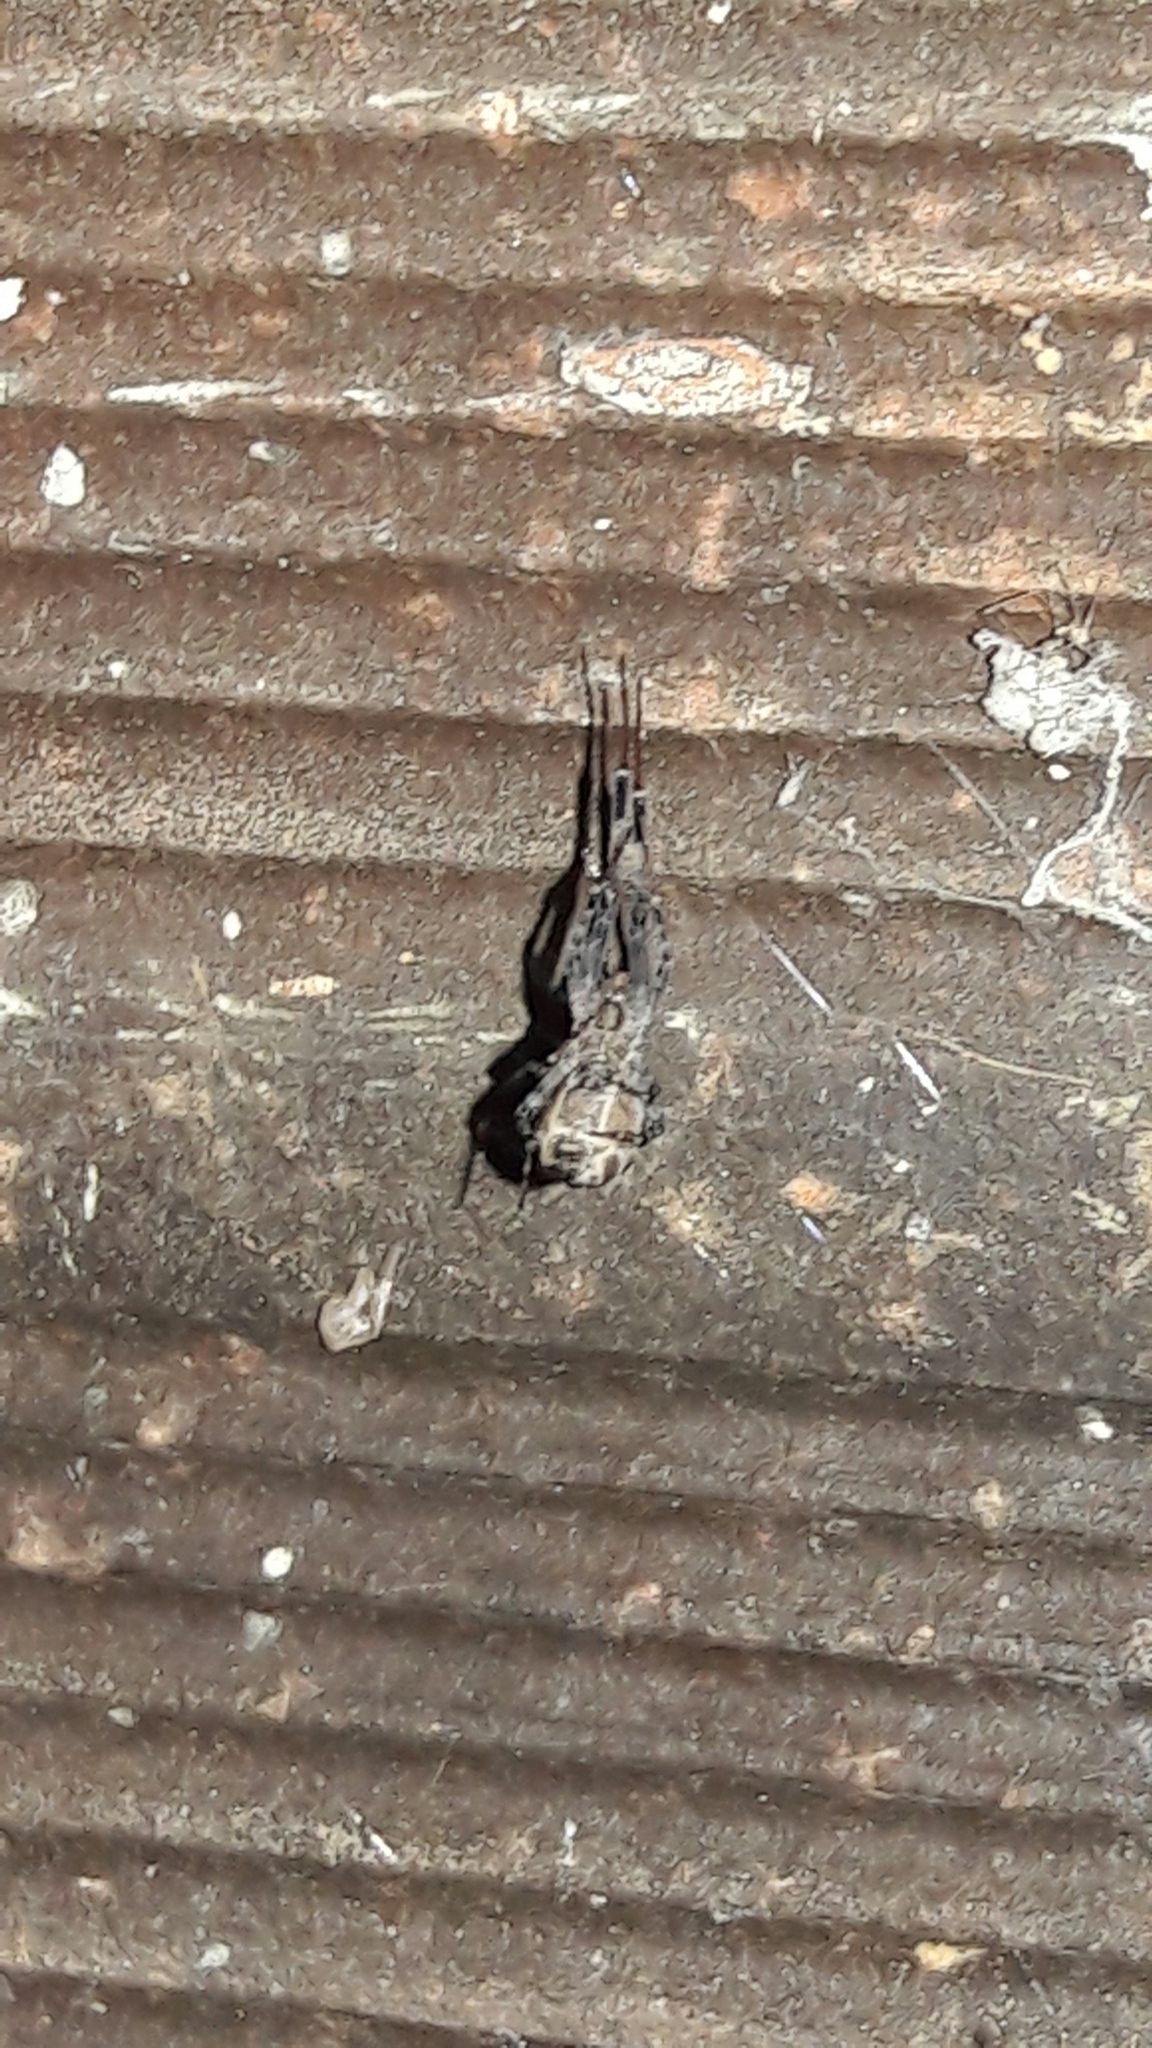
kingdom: Animalia
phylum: Arthropoda
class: Arachnida
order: Araneae
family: Uloboridae
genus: Zosis
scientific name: Zosis geniculata
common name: Hackled orb weavers
